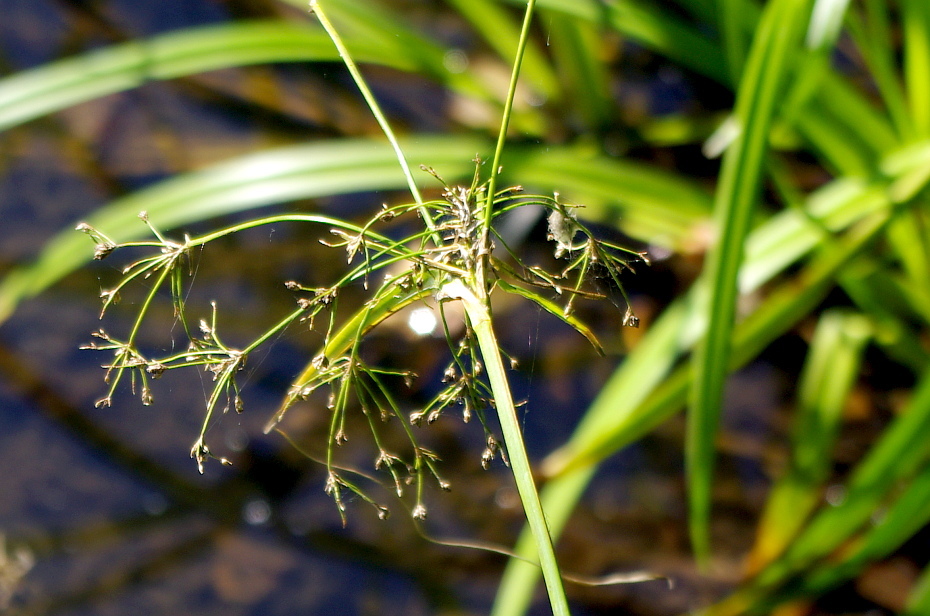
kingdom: Plantae
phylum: Tracheophyta
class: Liliopsida
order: Poales
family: Cyperaceae
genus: Scirpus
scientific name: Scirpus sylvaticus
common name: Wood club-rush
